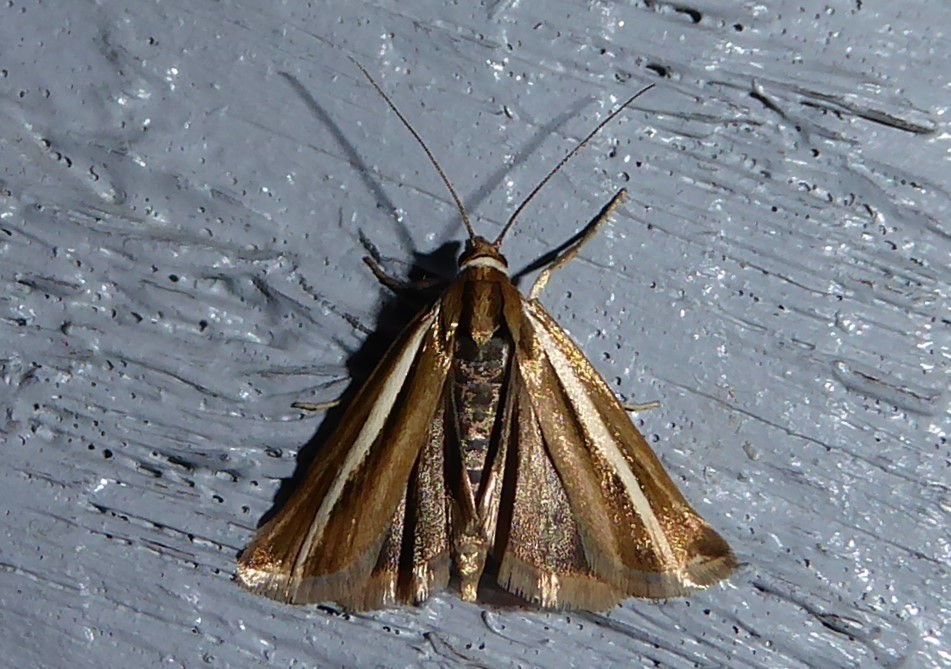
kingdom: Animalia
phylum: Arthropoda
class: Insecta
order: Lepidoptera
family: Crambidae
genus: Orocrambus
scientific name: Orocrambus aethonellus
